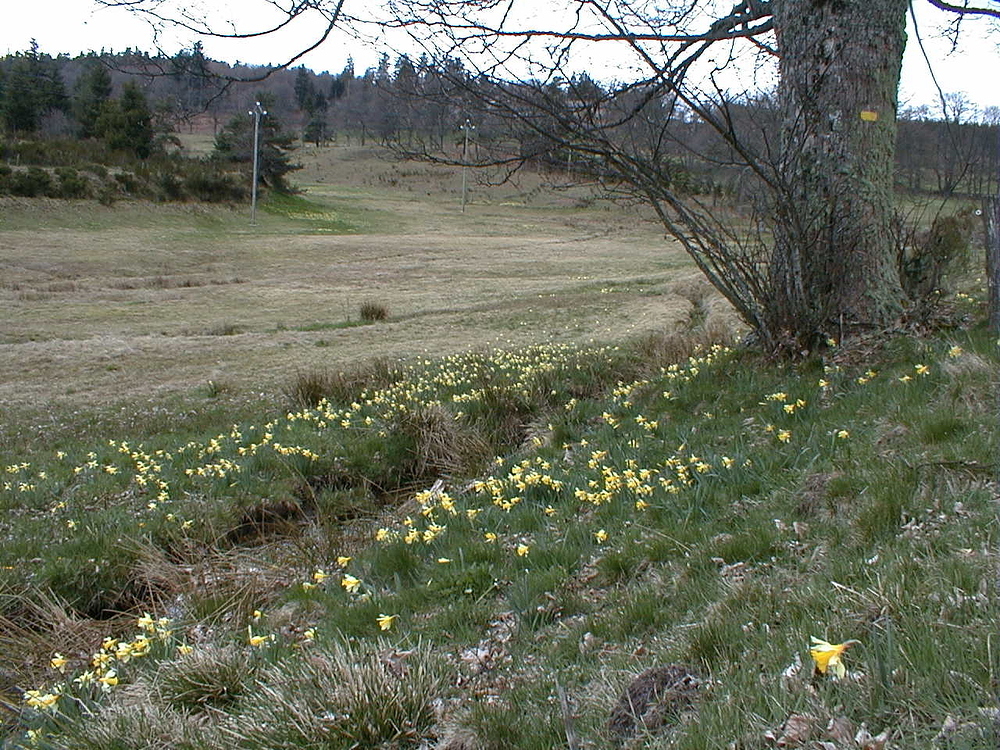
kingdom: Plantae
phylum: Tracheophyta
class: Liliopsida
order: Asparagales
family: Amaryllidaceae
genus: Narcissus
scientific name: Narcissus pseudonarcissus
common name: Daffodil
